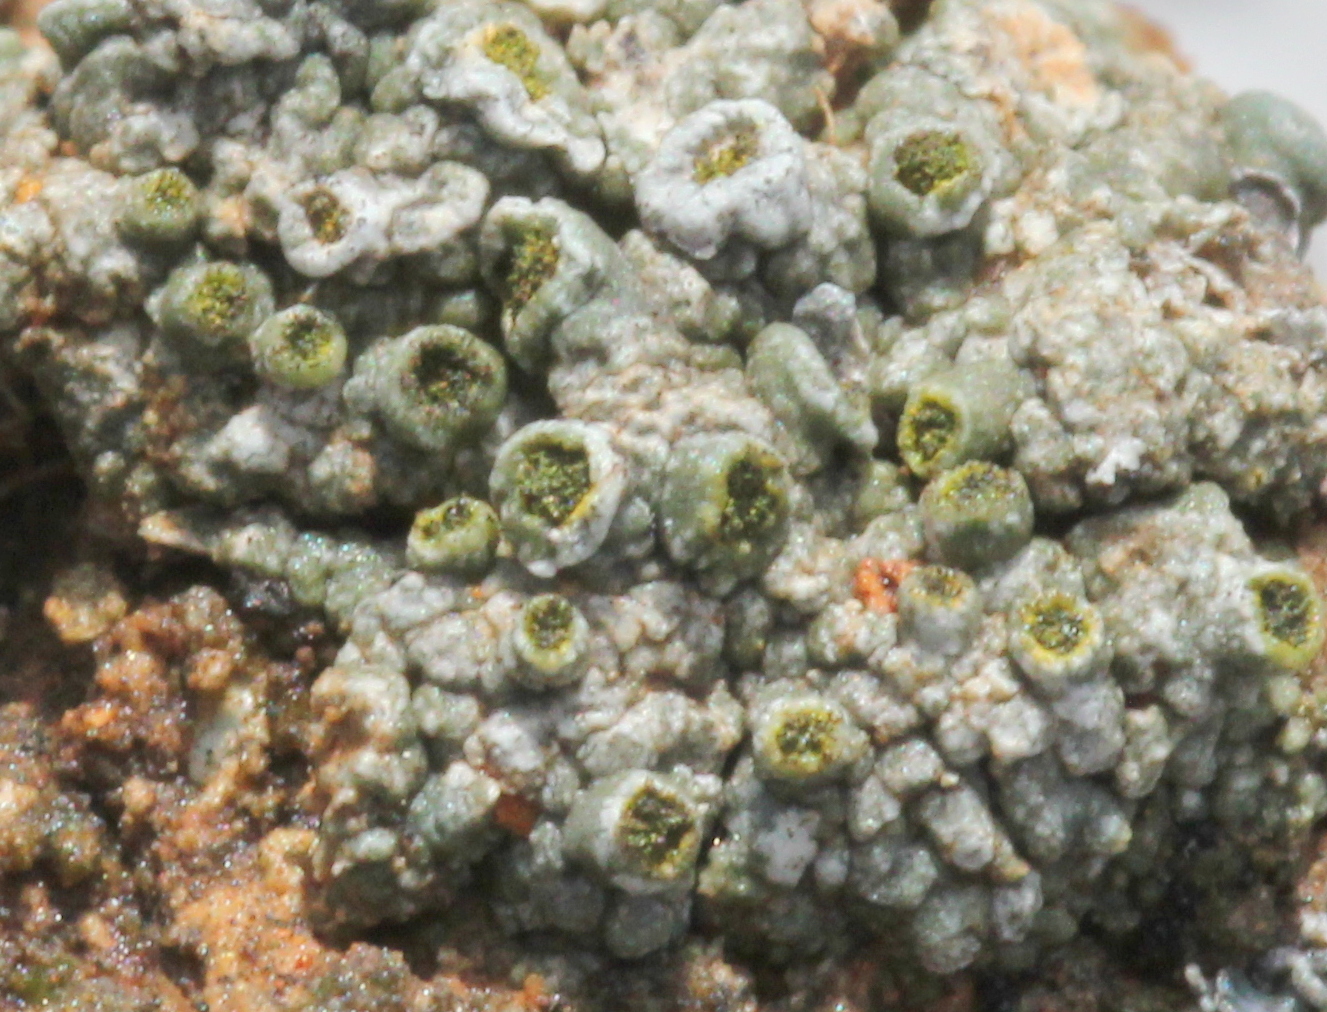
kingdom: Fungi
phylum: Ascomycota
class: Lecanoromycetes
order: Caliciales
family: Caliciaceae
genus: Texosporium
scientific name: Texosporium sancti-jacobi
